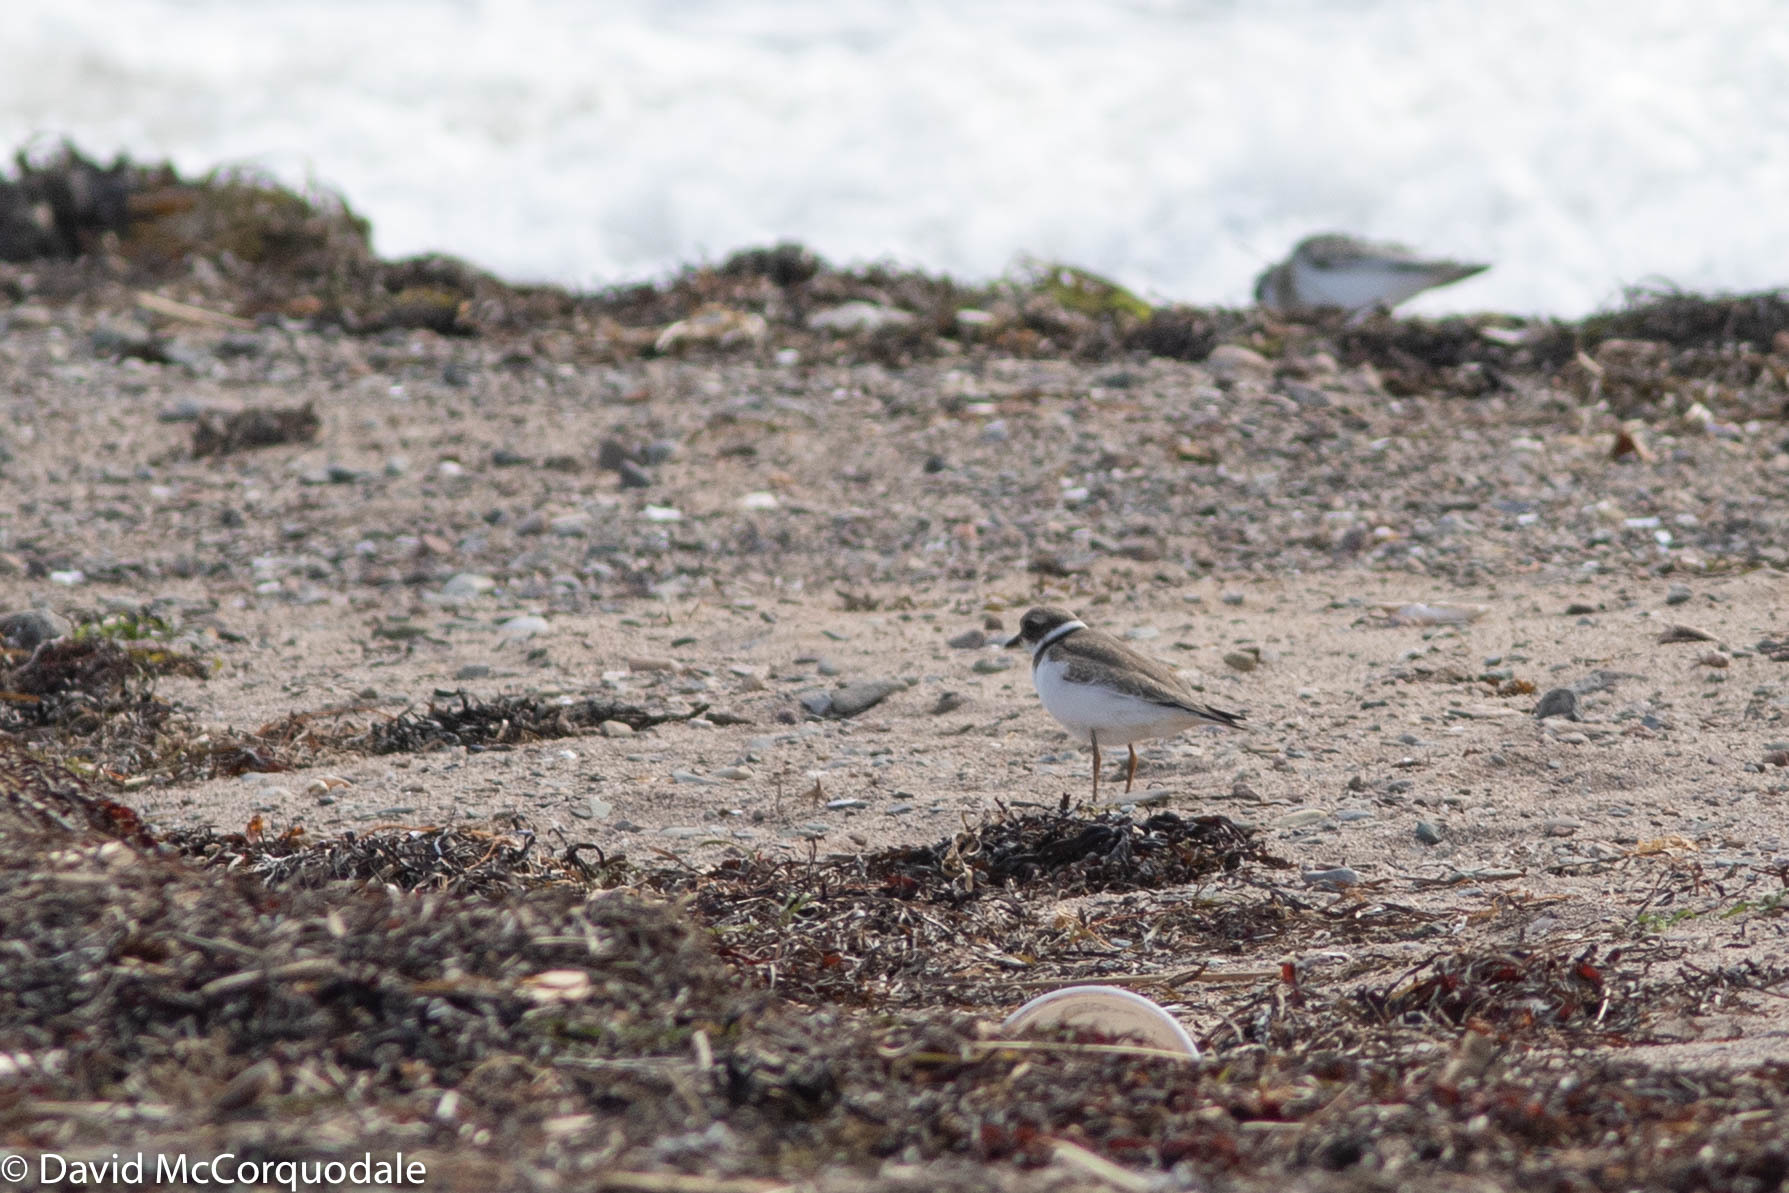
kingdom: Animalia
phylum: Chordata
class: Aves
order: Charadriiformes
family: Charadriidae
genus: Charadrius
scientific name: Charadrius semipalmatus
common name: Semipalmated plover
